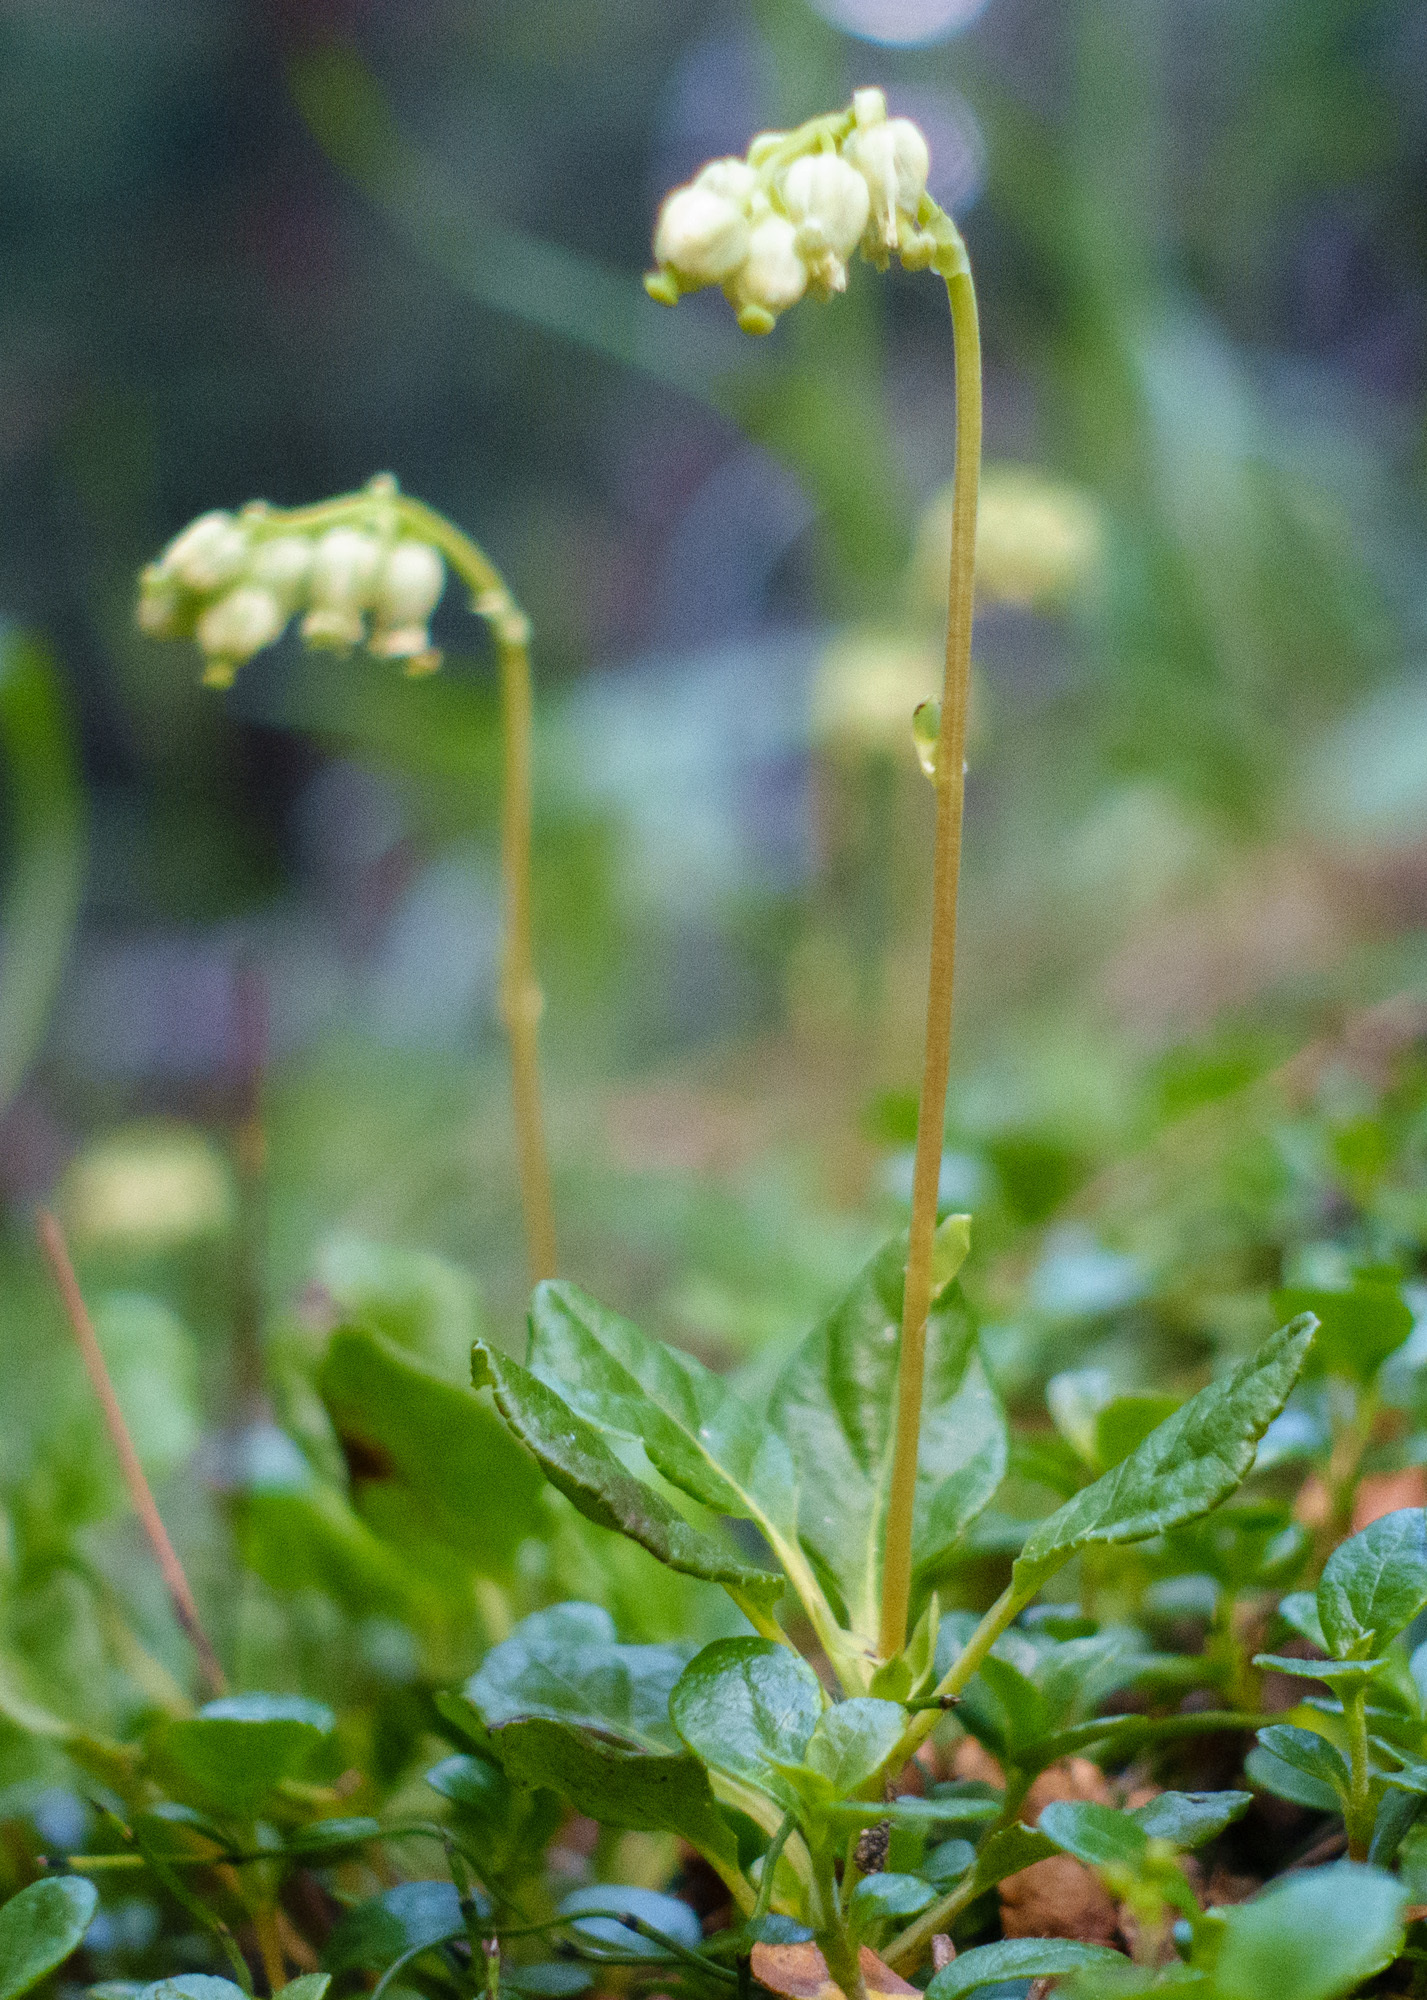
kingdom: Plantae
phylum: Tracheophyta
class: Magnoliopsida
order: Ericales
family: Ericaceae
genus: Orthilia
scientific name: Orthilia secunda
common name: One-sided orthilia
